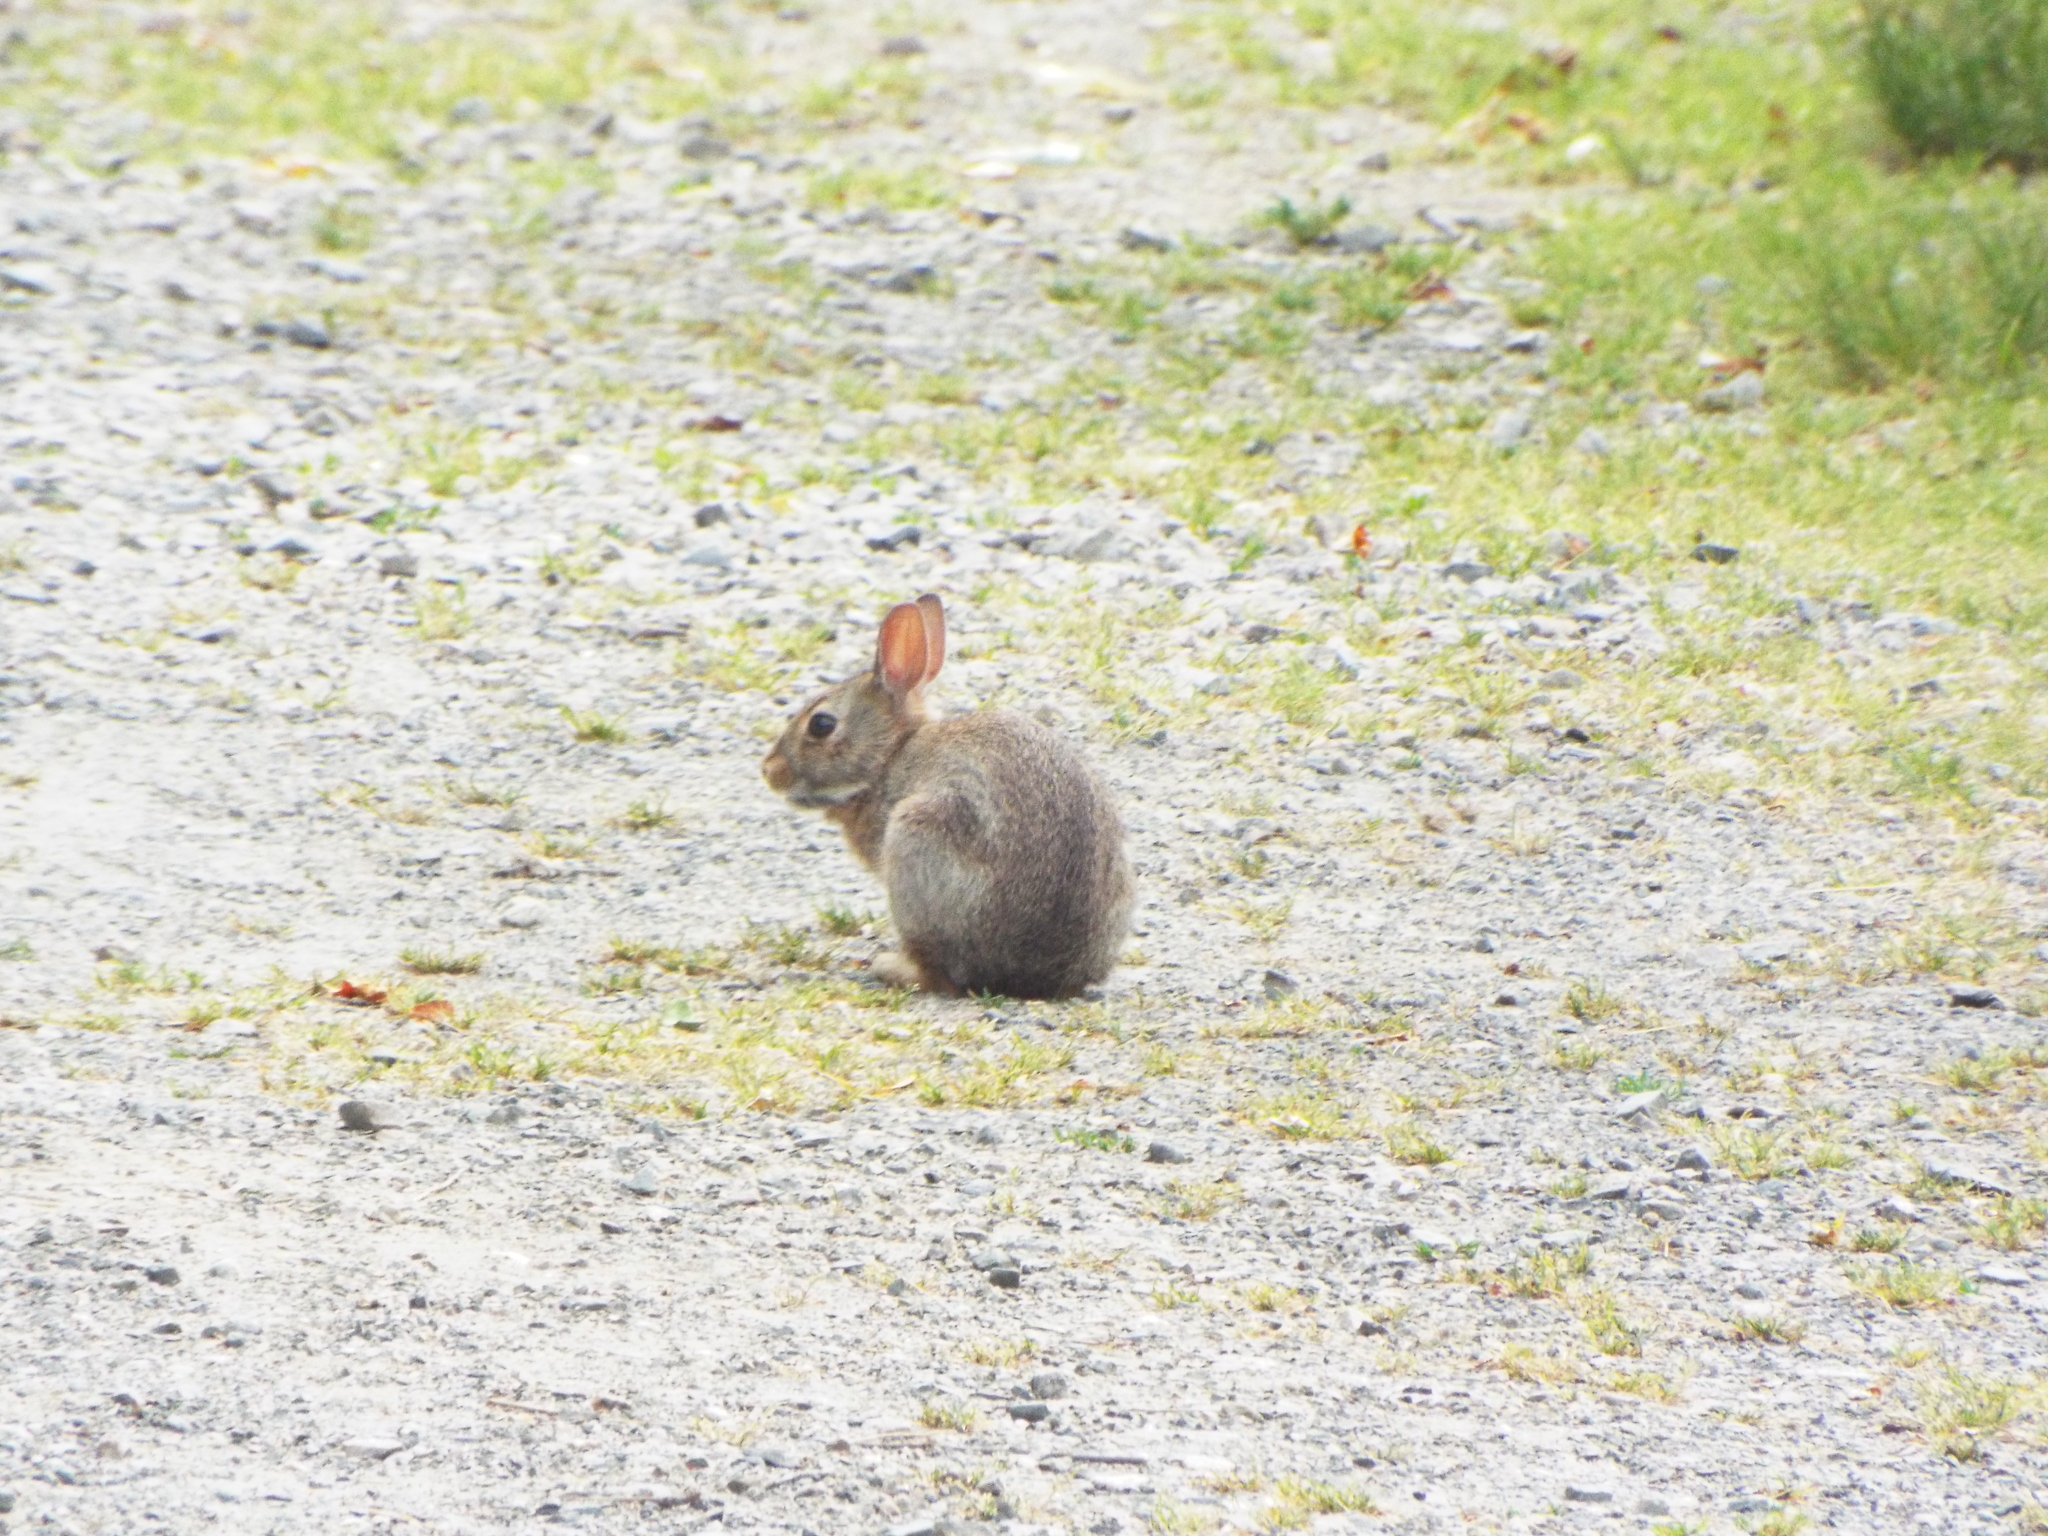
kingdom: Animalia
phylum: Chordata
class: Mammalia
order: Lagomorpha
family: Leporidae
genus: Sylvilagus
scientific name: Sylvilagus floridanus
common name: Eastern cottontail
